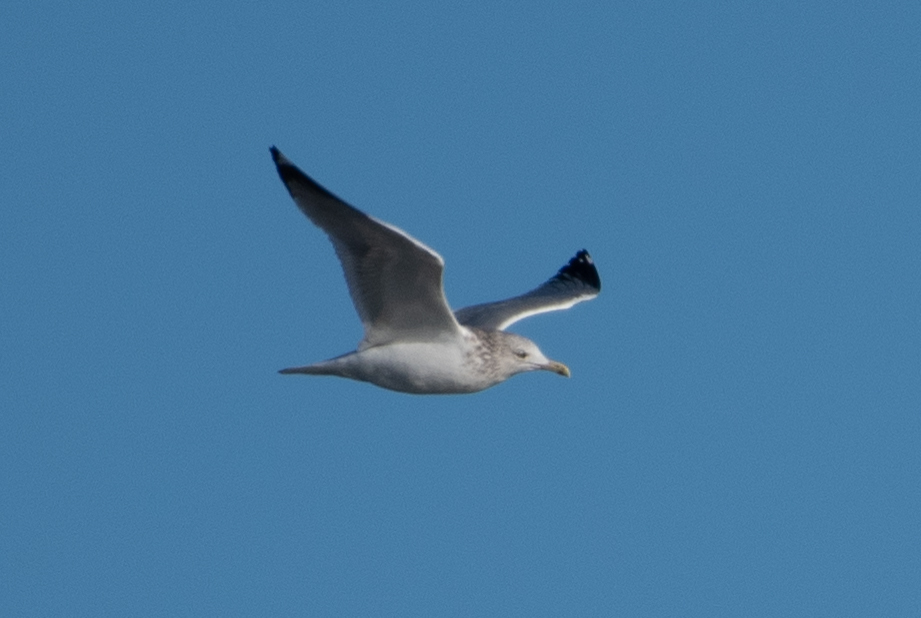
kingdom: Animalia
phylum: Chordata
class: Aves
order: Charadriiformes
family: Laridae
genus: Larus
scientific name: Larus argentatus
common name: Herring gull
